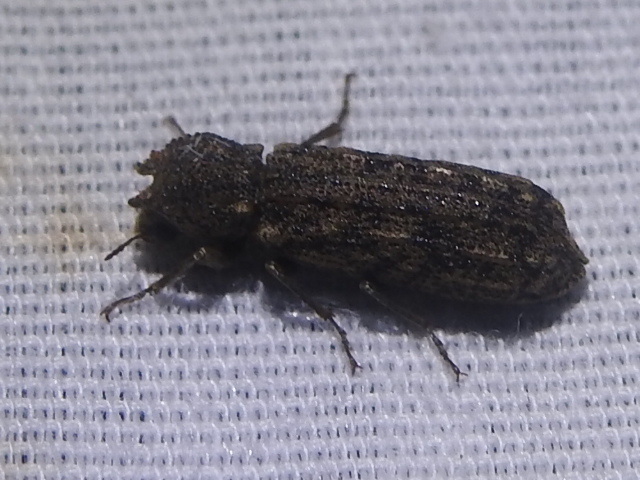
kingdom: Animalia
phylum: Arthropoda
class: Insecta
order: Coleoptera
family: Bostrichidae
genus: Lichenophanes
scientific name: Lichenophanes bicornis
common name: Two-horned powder-post beetle
